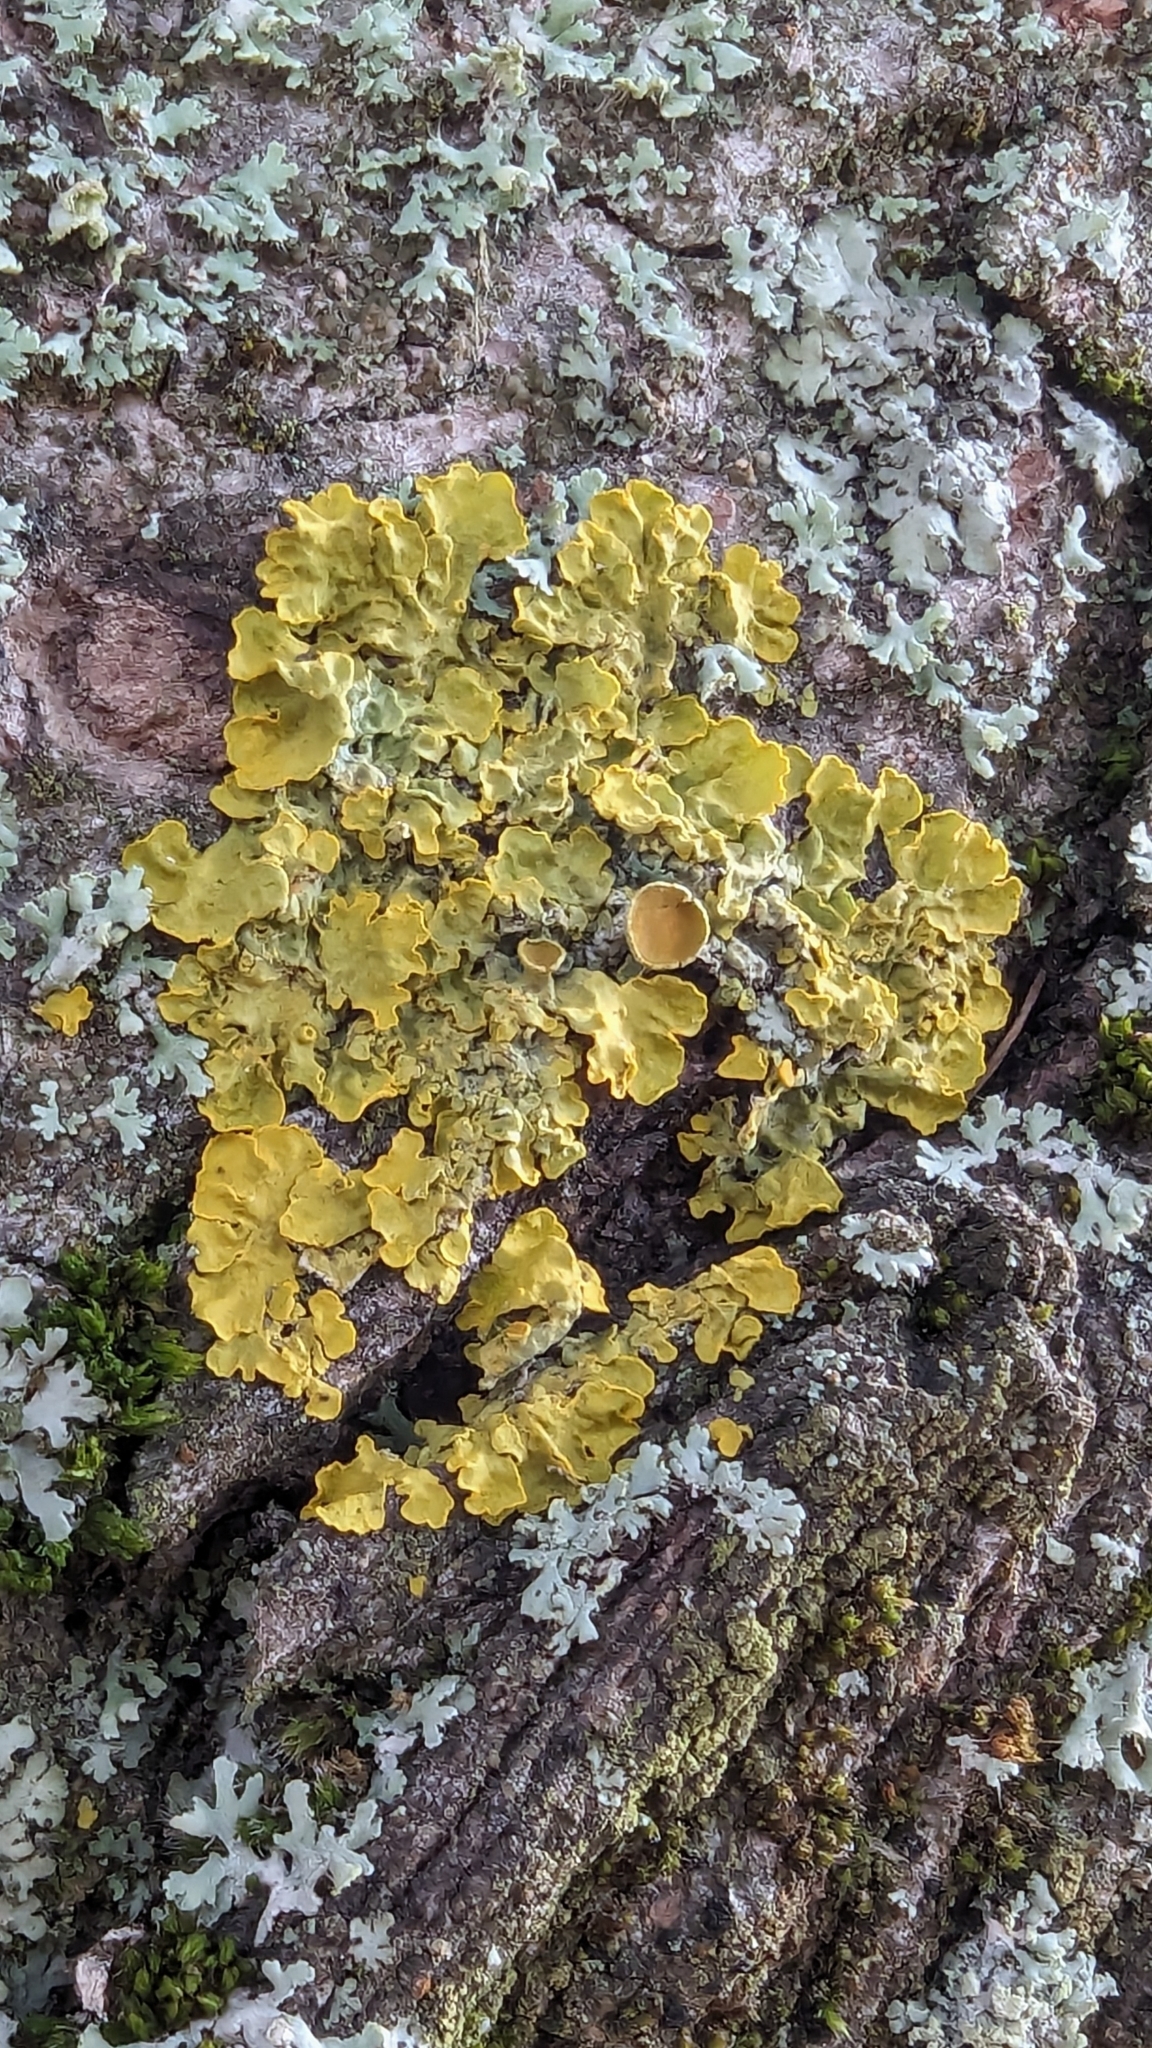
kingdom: Fungi
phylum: Ascomycota
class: Lecanoromycetes
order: Teloschistales
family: Teloschistaceae
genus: Xanthoria
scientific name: Xanthoria parietina
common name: Common orange lichen
